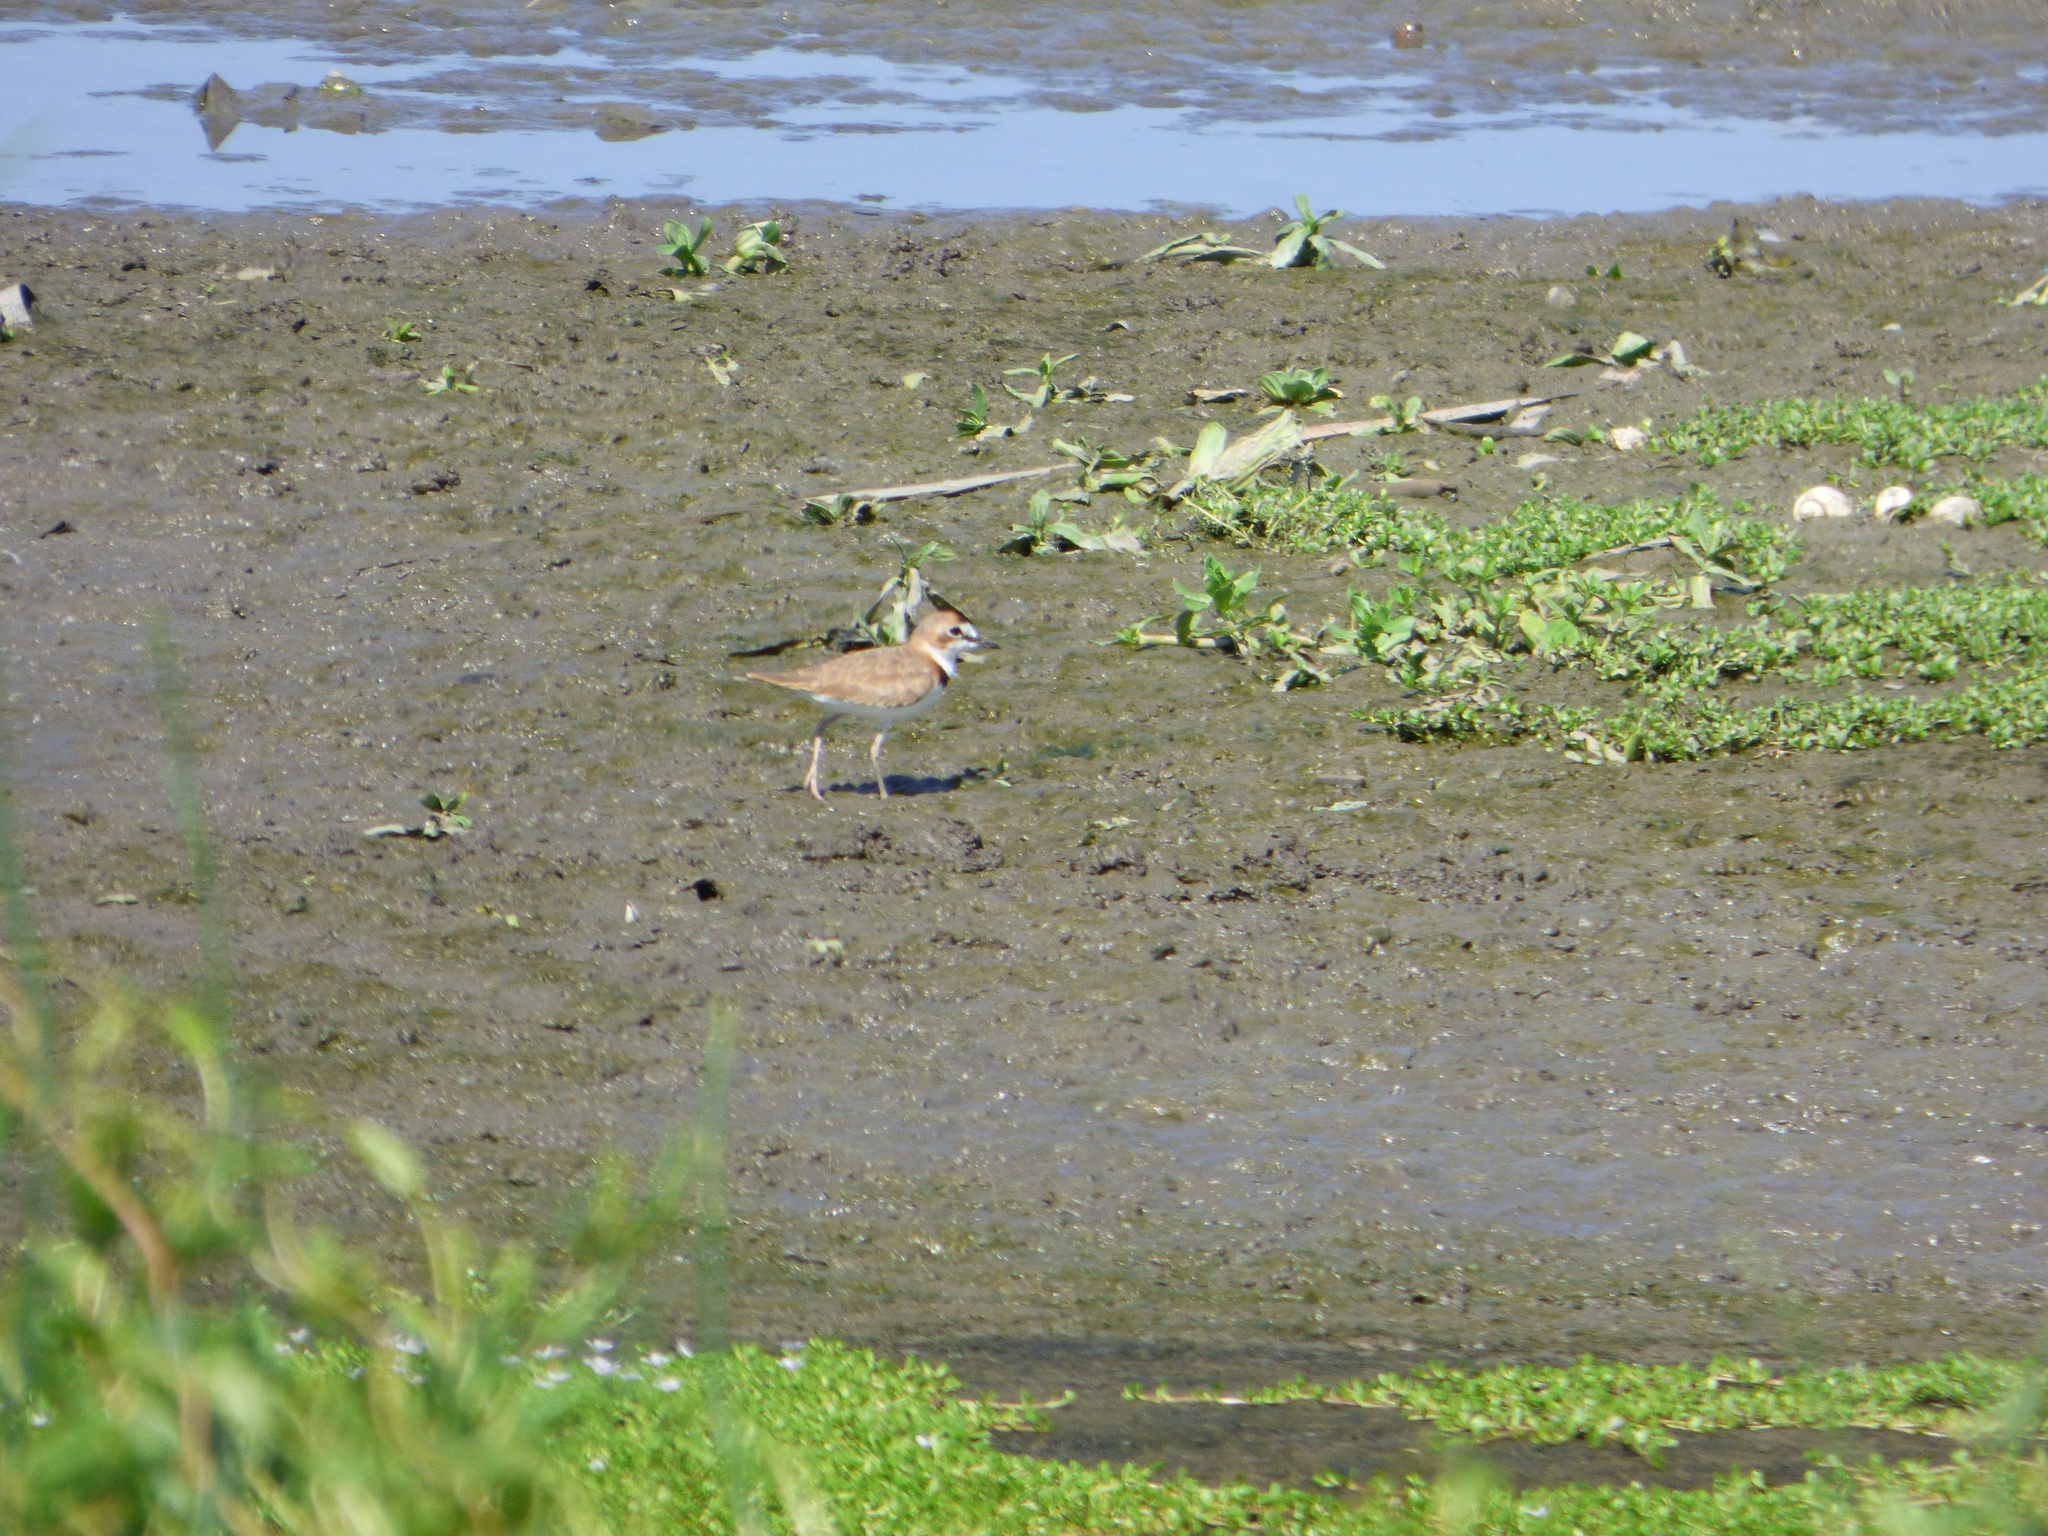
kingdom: Animalia
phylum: Chordata
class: Aves
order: Charadriiformes
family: Charadriidae
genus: Anarhynchus
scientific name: Anarhynchus
